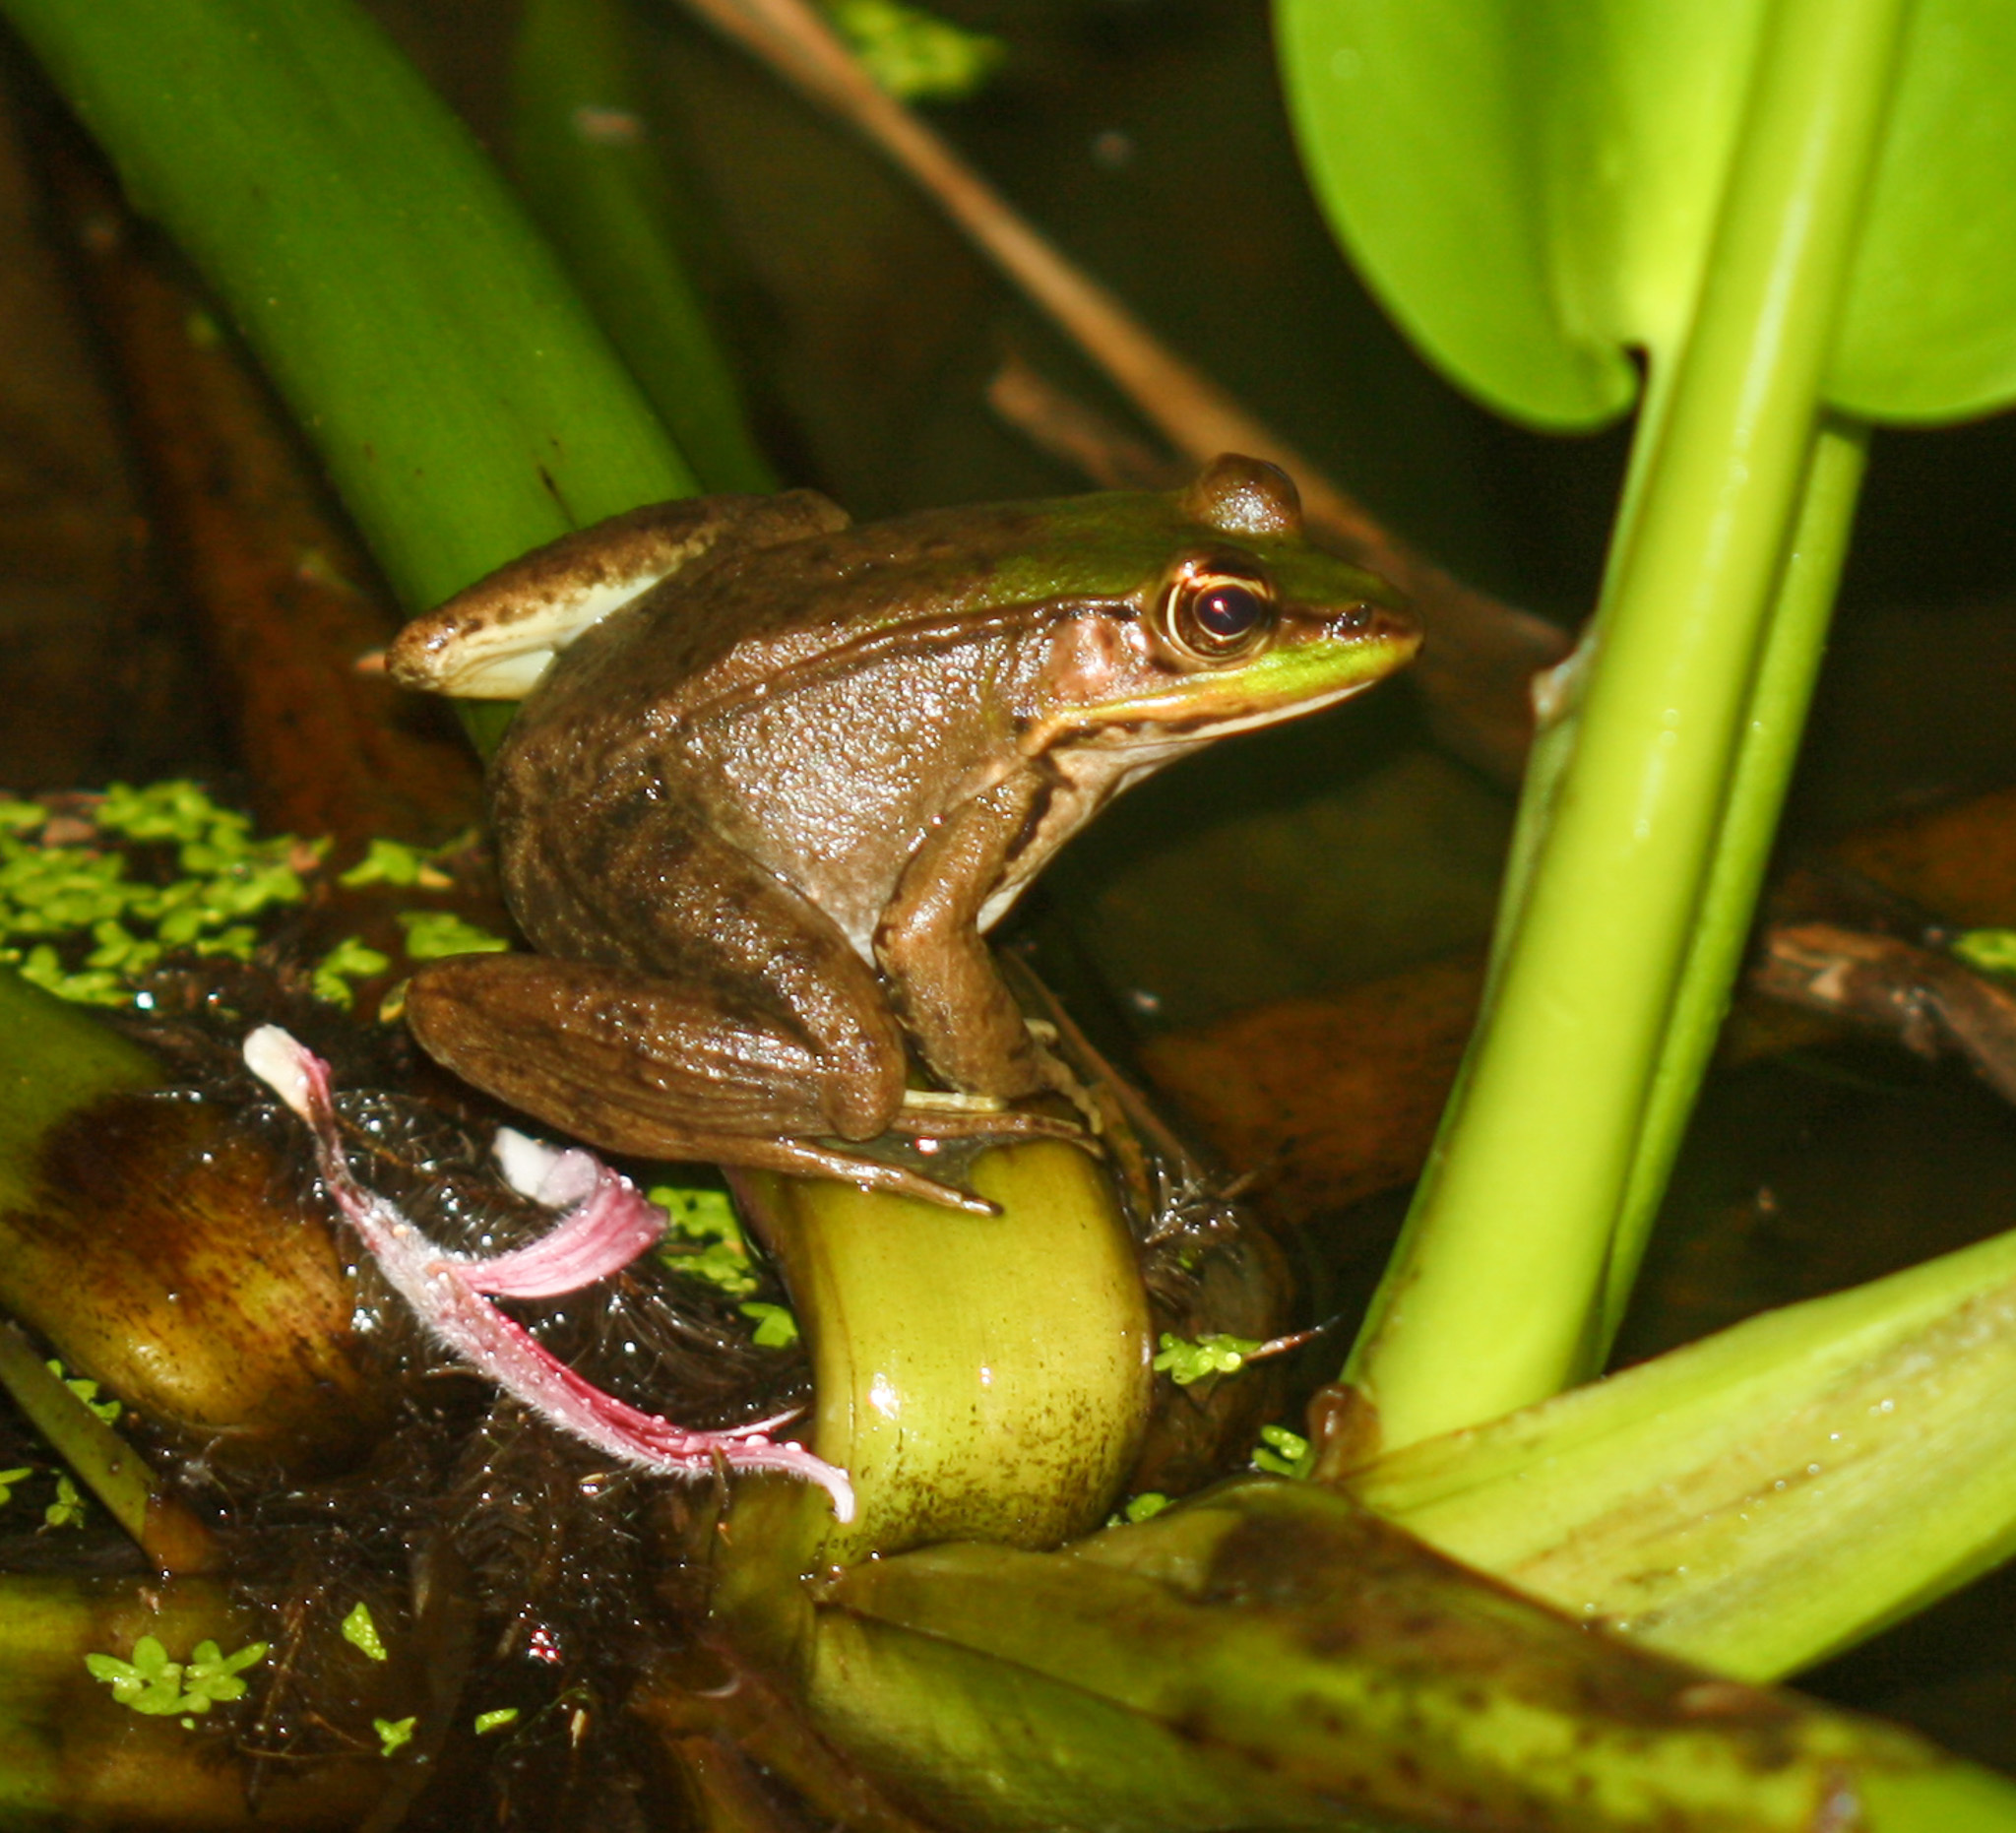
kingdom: Animalia
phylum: Chordata
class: Amphibia
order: Anura
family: Ranidae
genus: Lithobates
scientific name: Lithobates vaillanti
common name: Vaillant's frog
